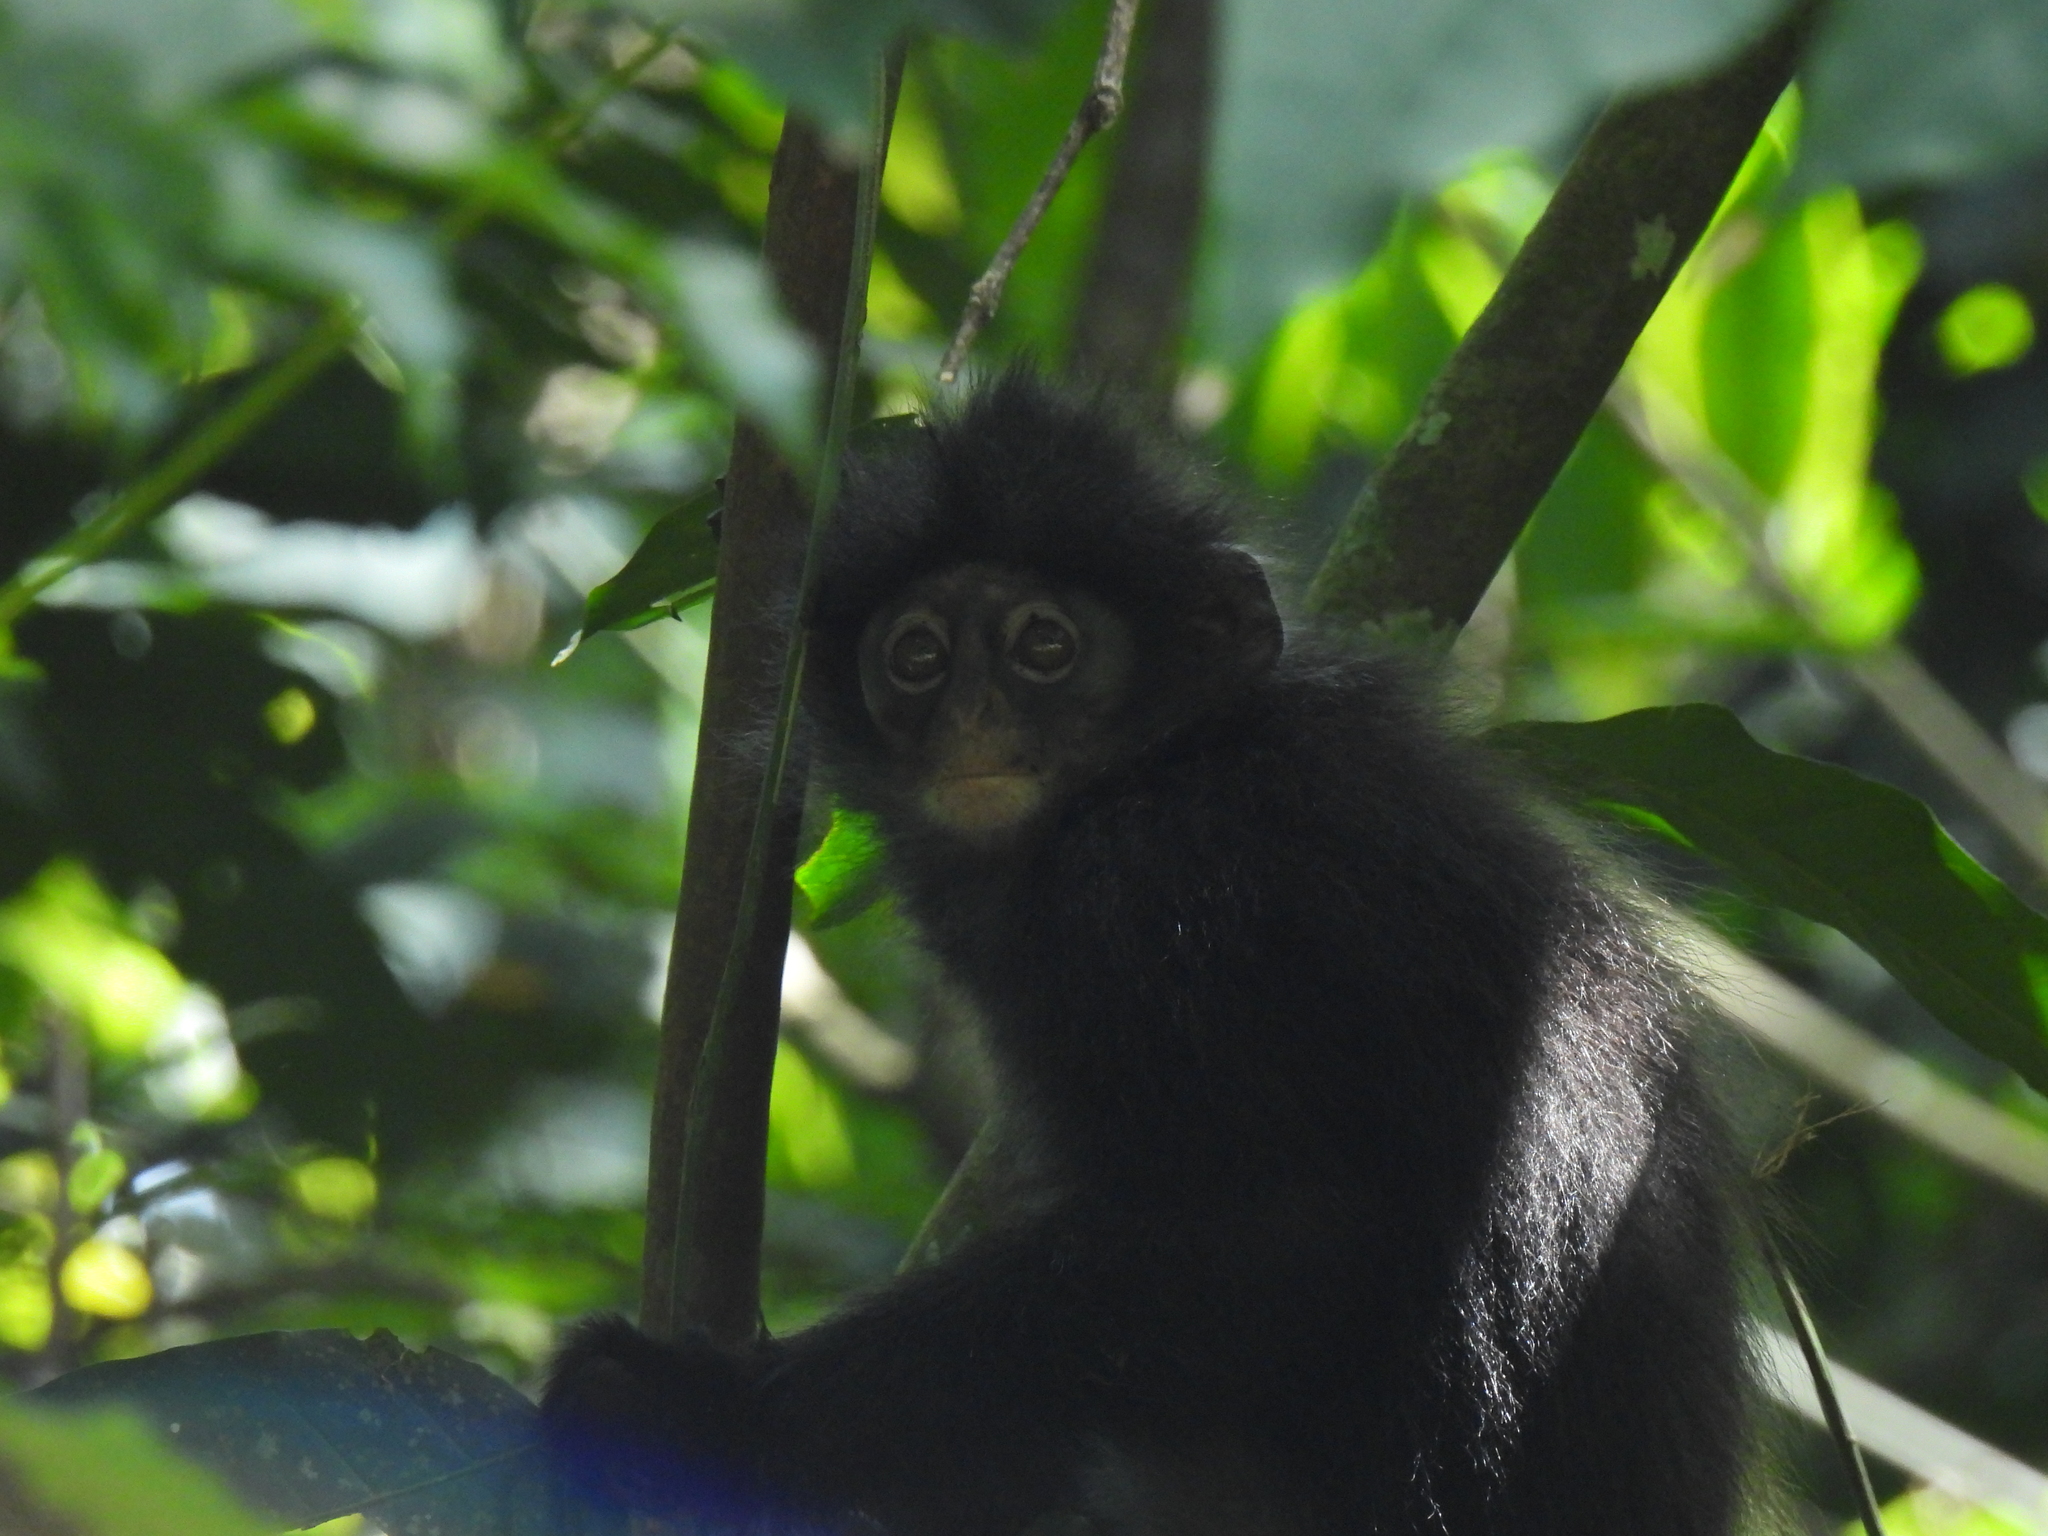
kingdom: Animalia
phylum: Chordata
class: Mammalia
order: Primates
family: Cercopithecidae
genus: Presbytis
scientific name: Presbytis femoralis
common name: Banded surili
